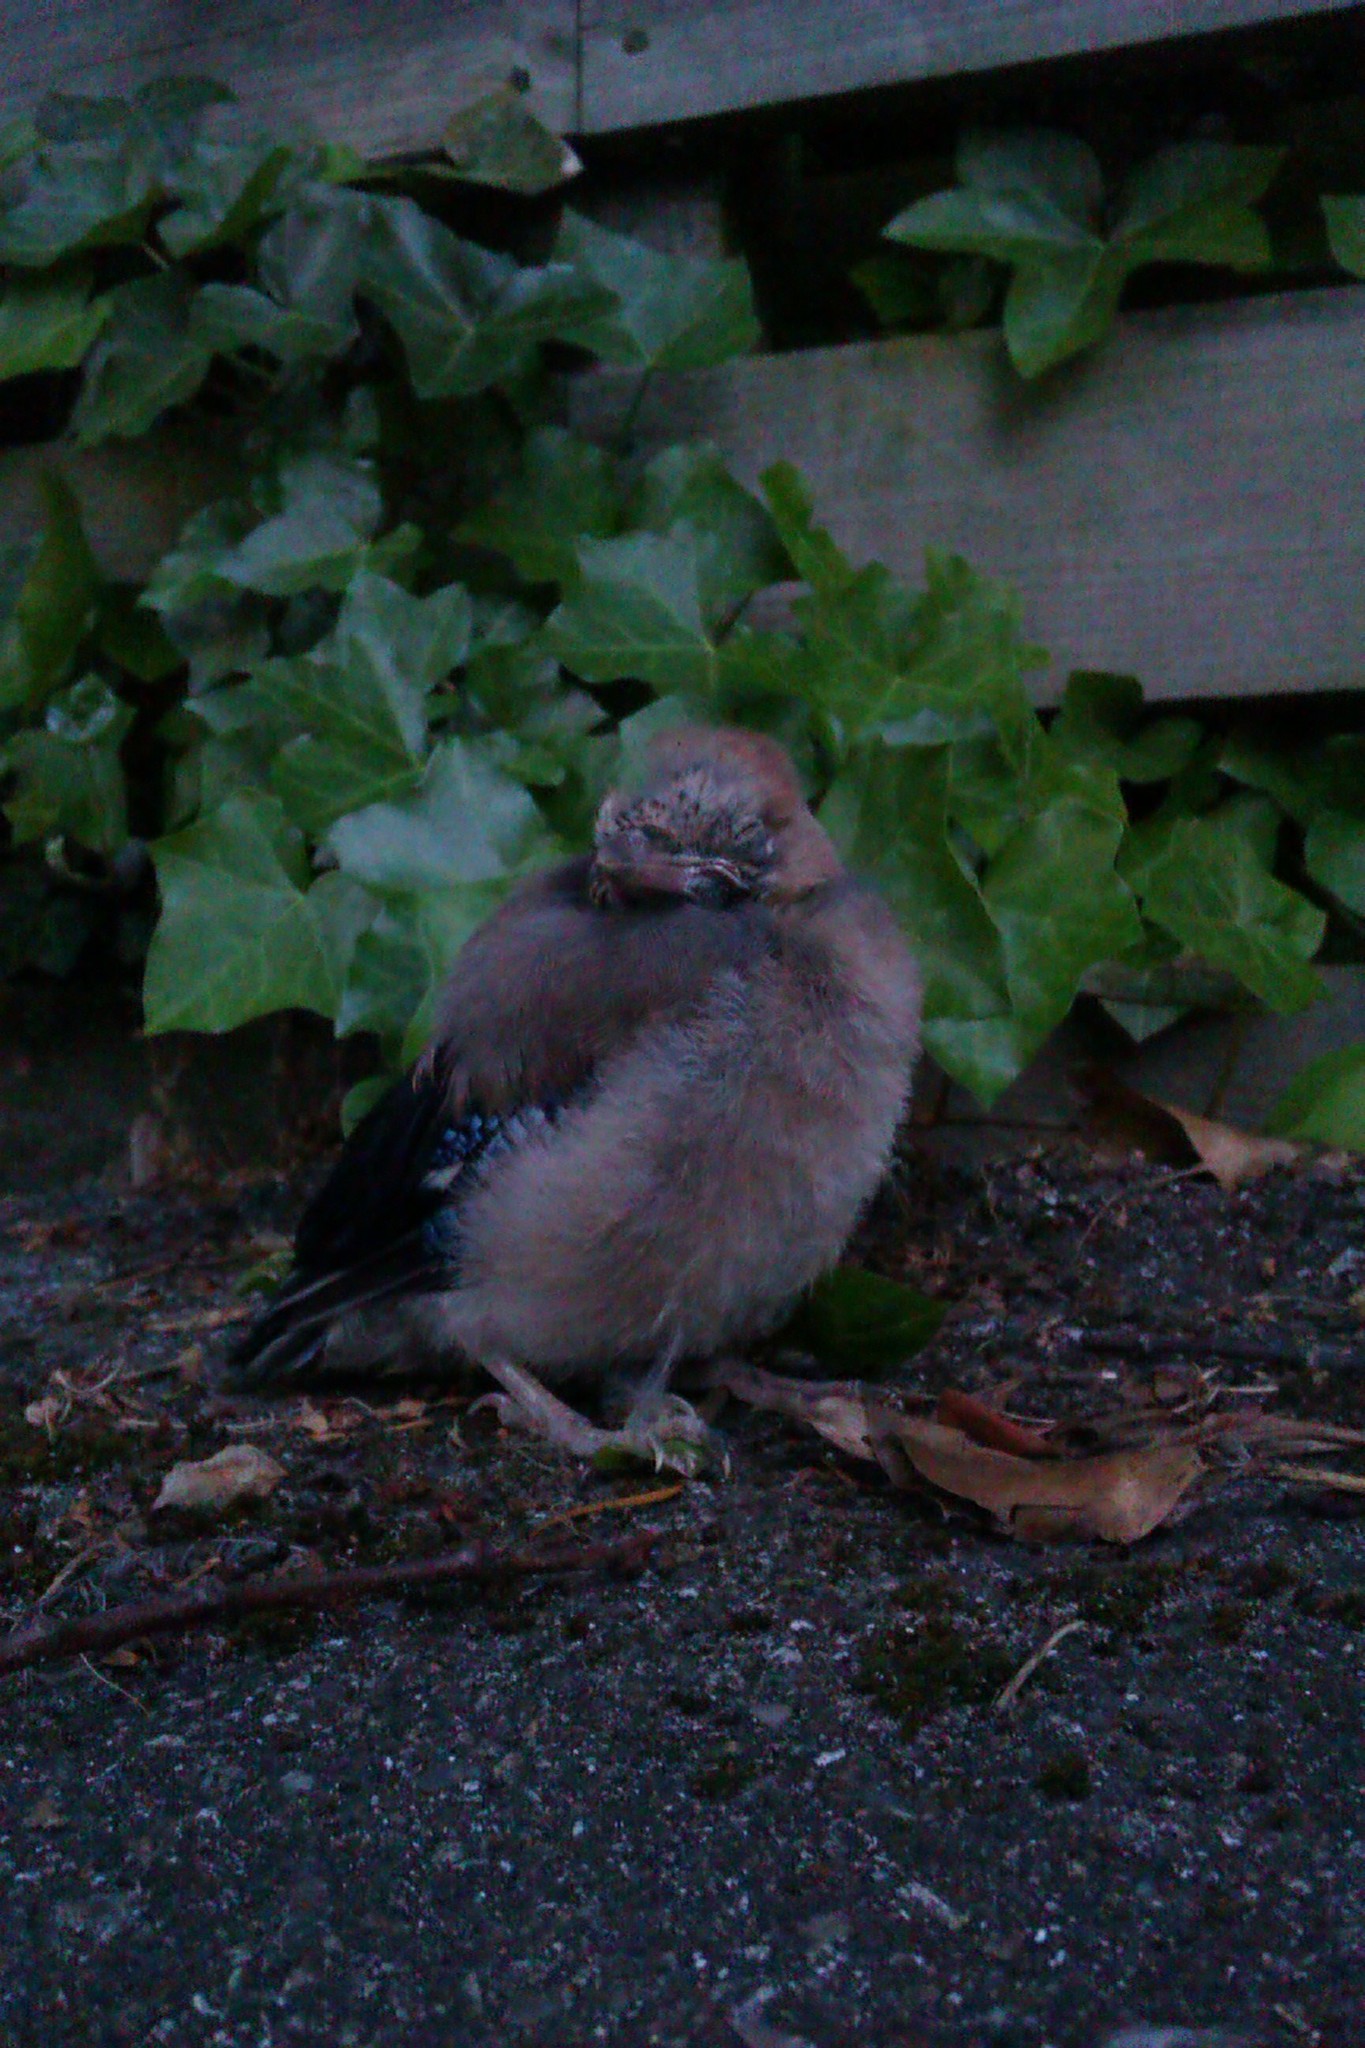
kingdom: Animalia
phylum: Chordata
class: Aves
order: Passeriformes
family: Corvidae
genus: Garrulus
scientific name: Garrulus glandarius
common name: Eurasian jay
